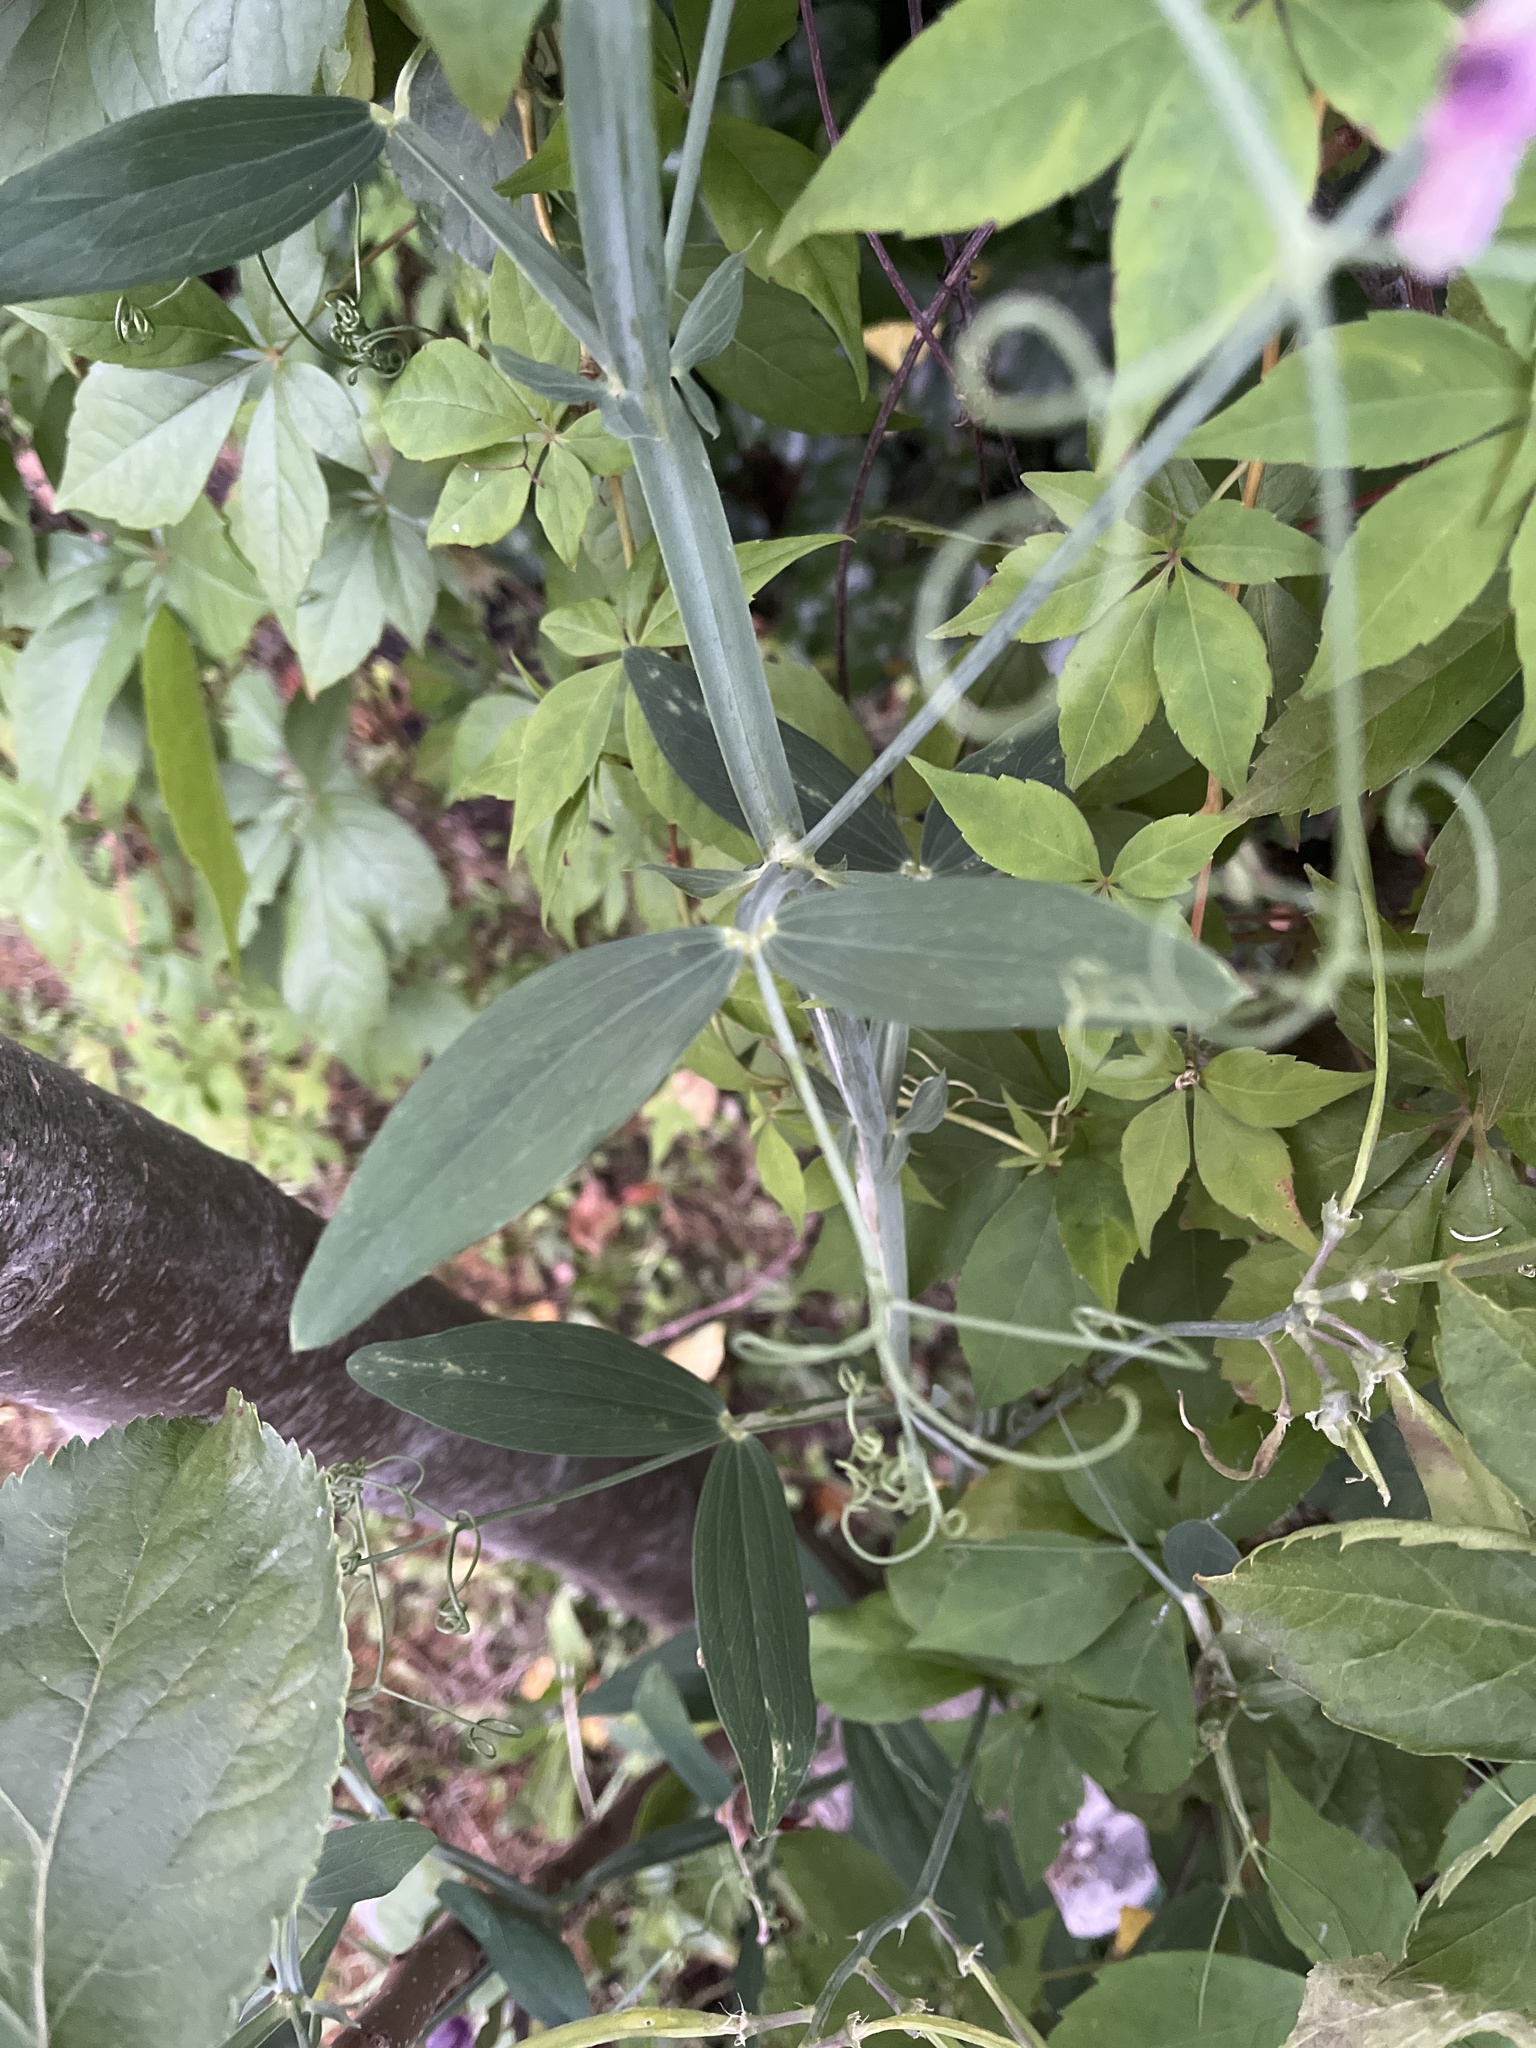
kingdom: Plantae
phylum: Tracheophyta
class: Magnoliopsida
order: Fabales
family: Fabaceae
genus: Lathyrus
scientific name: Lathyrus latifolius
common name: Perennial pea
